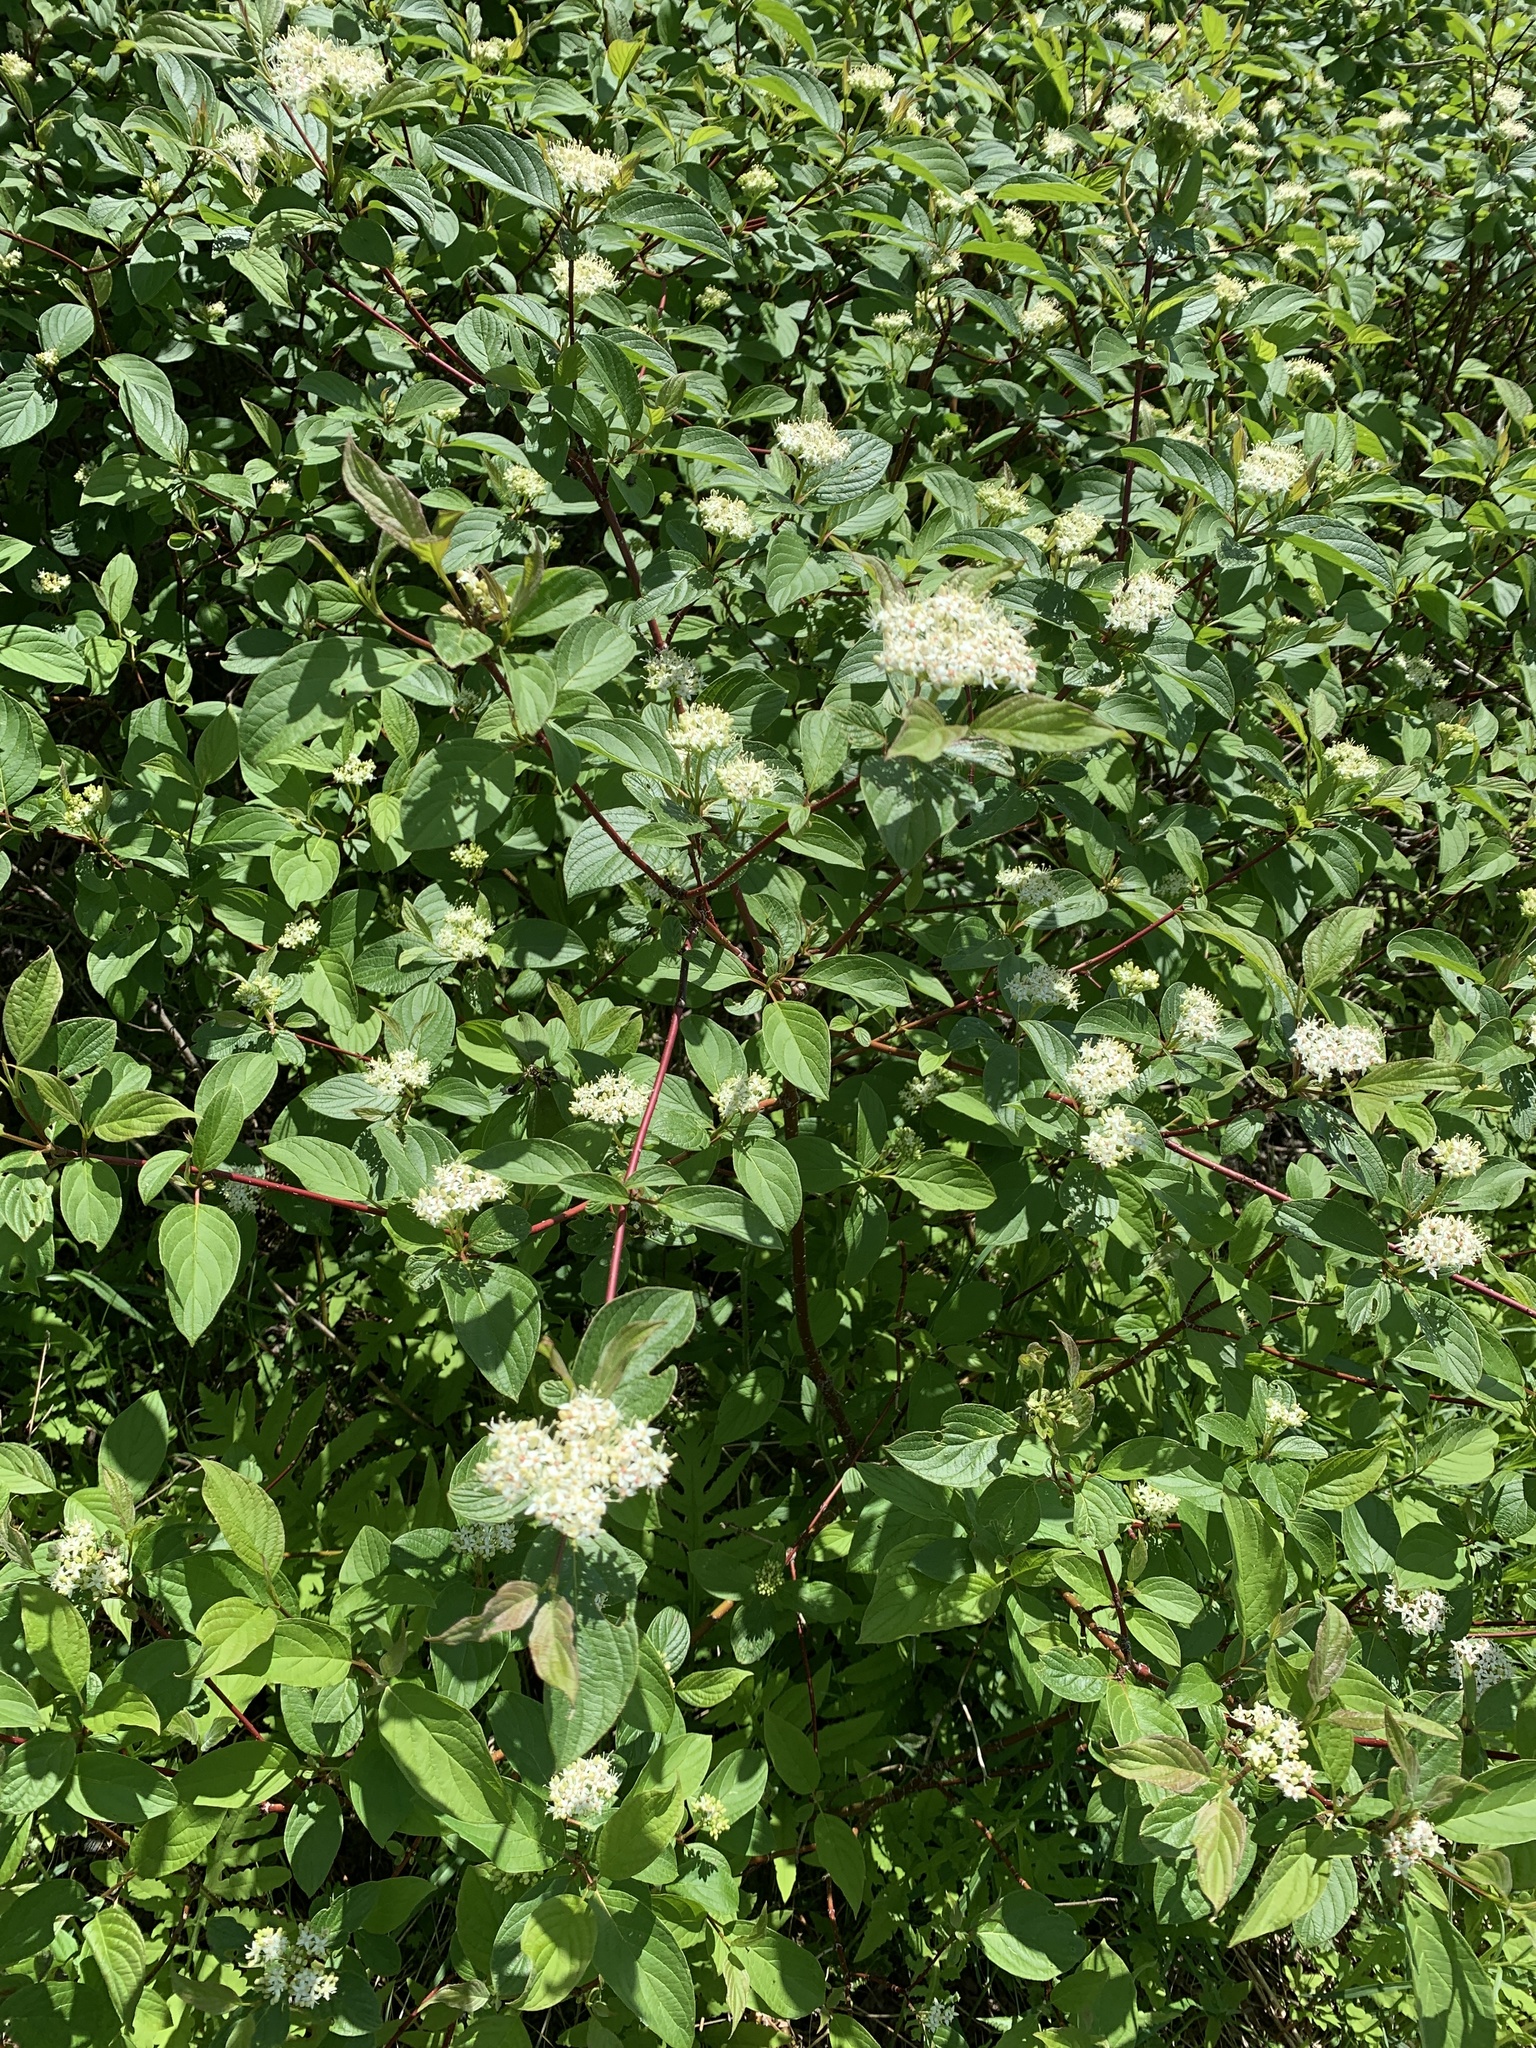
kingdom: Plantae
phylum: Tracheophyta
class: Magnoliopsida
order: Cornales
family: Cornaceae
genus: Cornus
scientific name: Cornus sericea
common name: Red-osier dogwood
